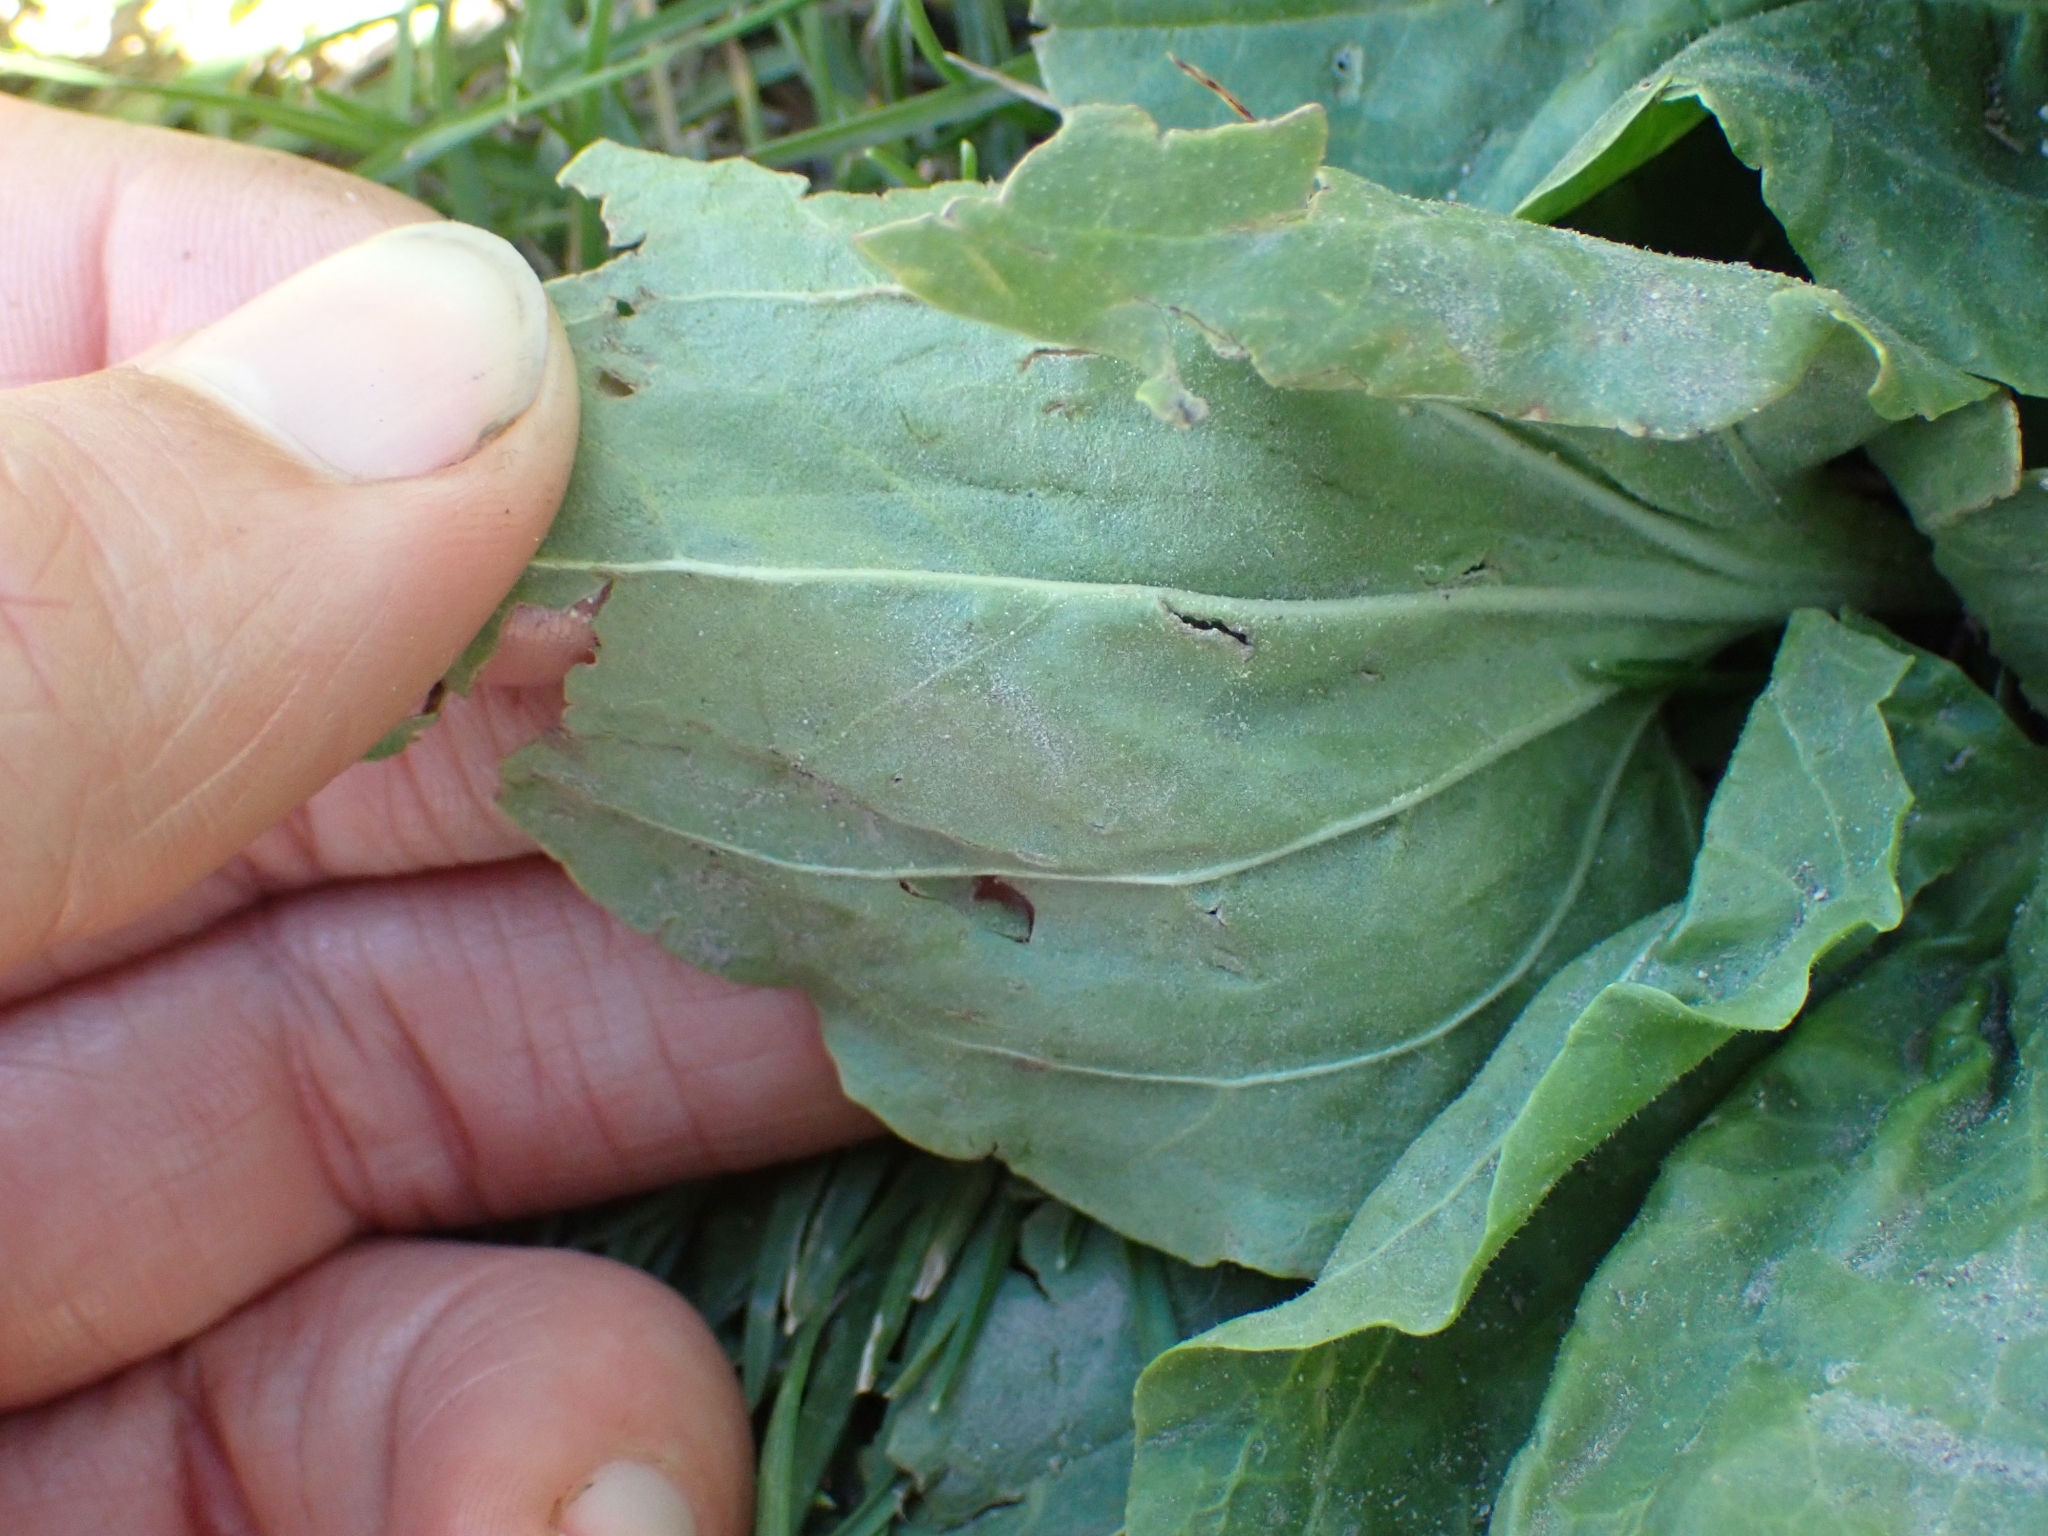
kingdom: Plantae
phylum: Tracheophyta
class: Magnoliopsida
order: Lamiales
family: Plantaginaceae
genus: Plantago
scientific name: Plantago major
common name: Common plantain
